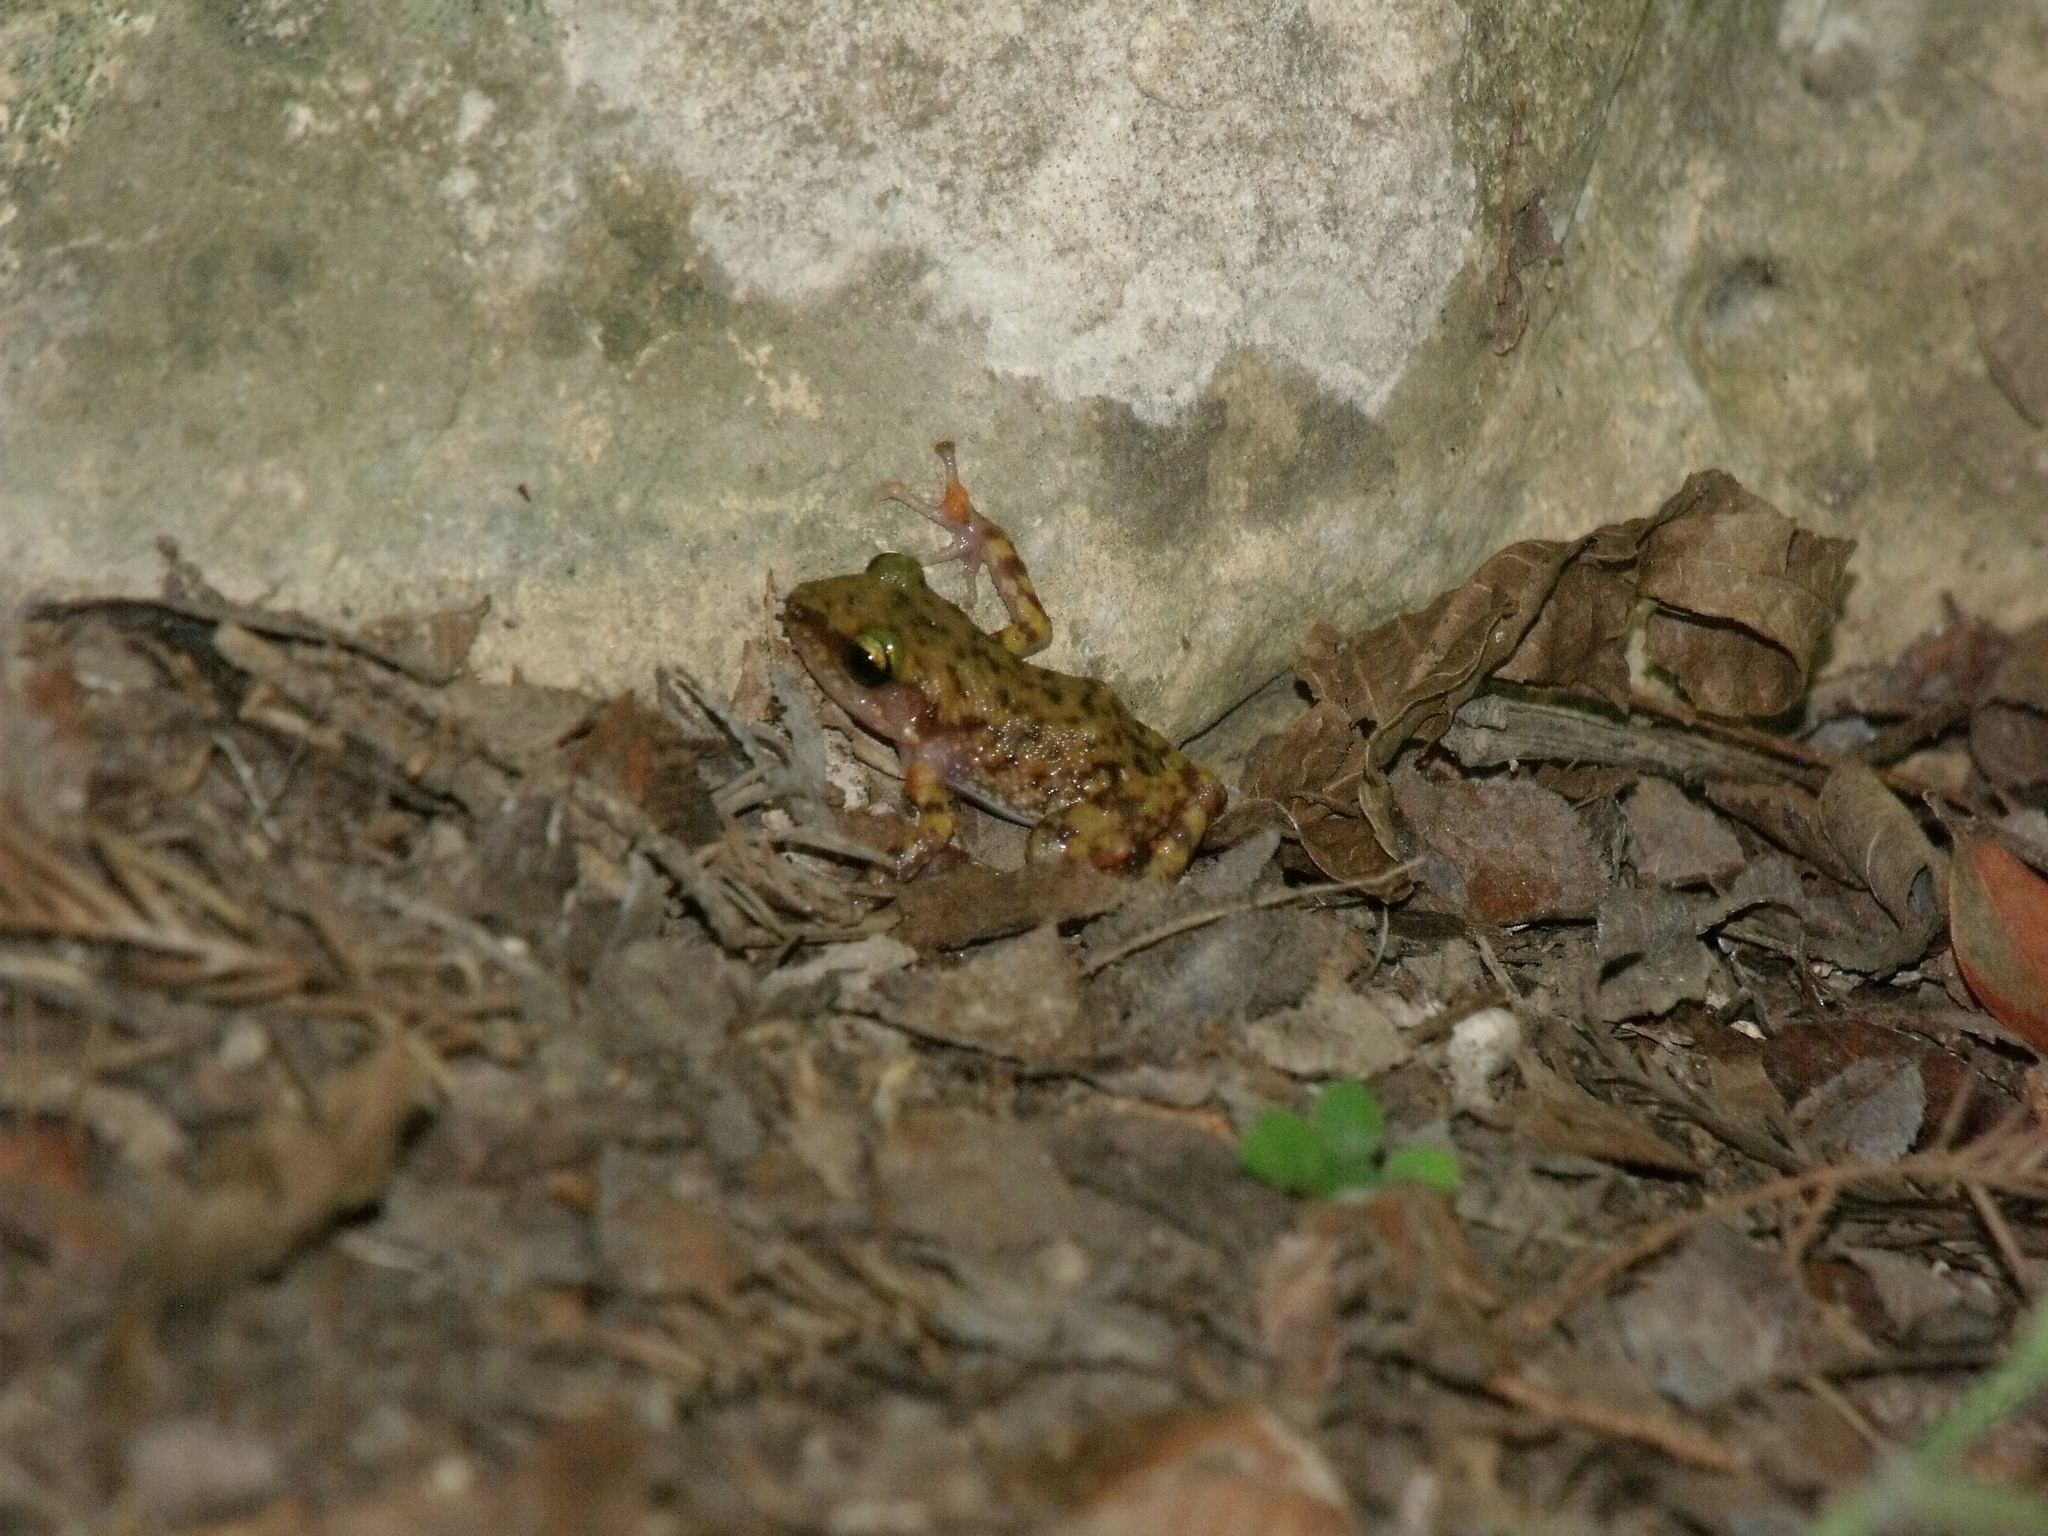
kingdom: Animalia
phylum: Chordata
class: Amphibia
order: Anura
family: Eleutherodactylidae
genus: Eleutherodactylus
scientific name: Eleutherodactylus marnockii
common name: Cliff chirping frog
